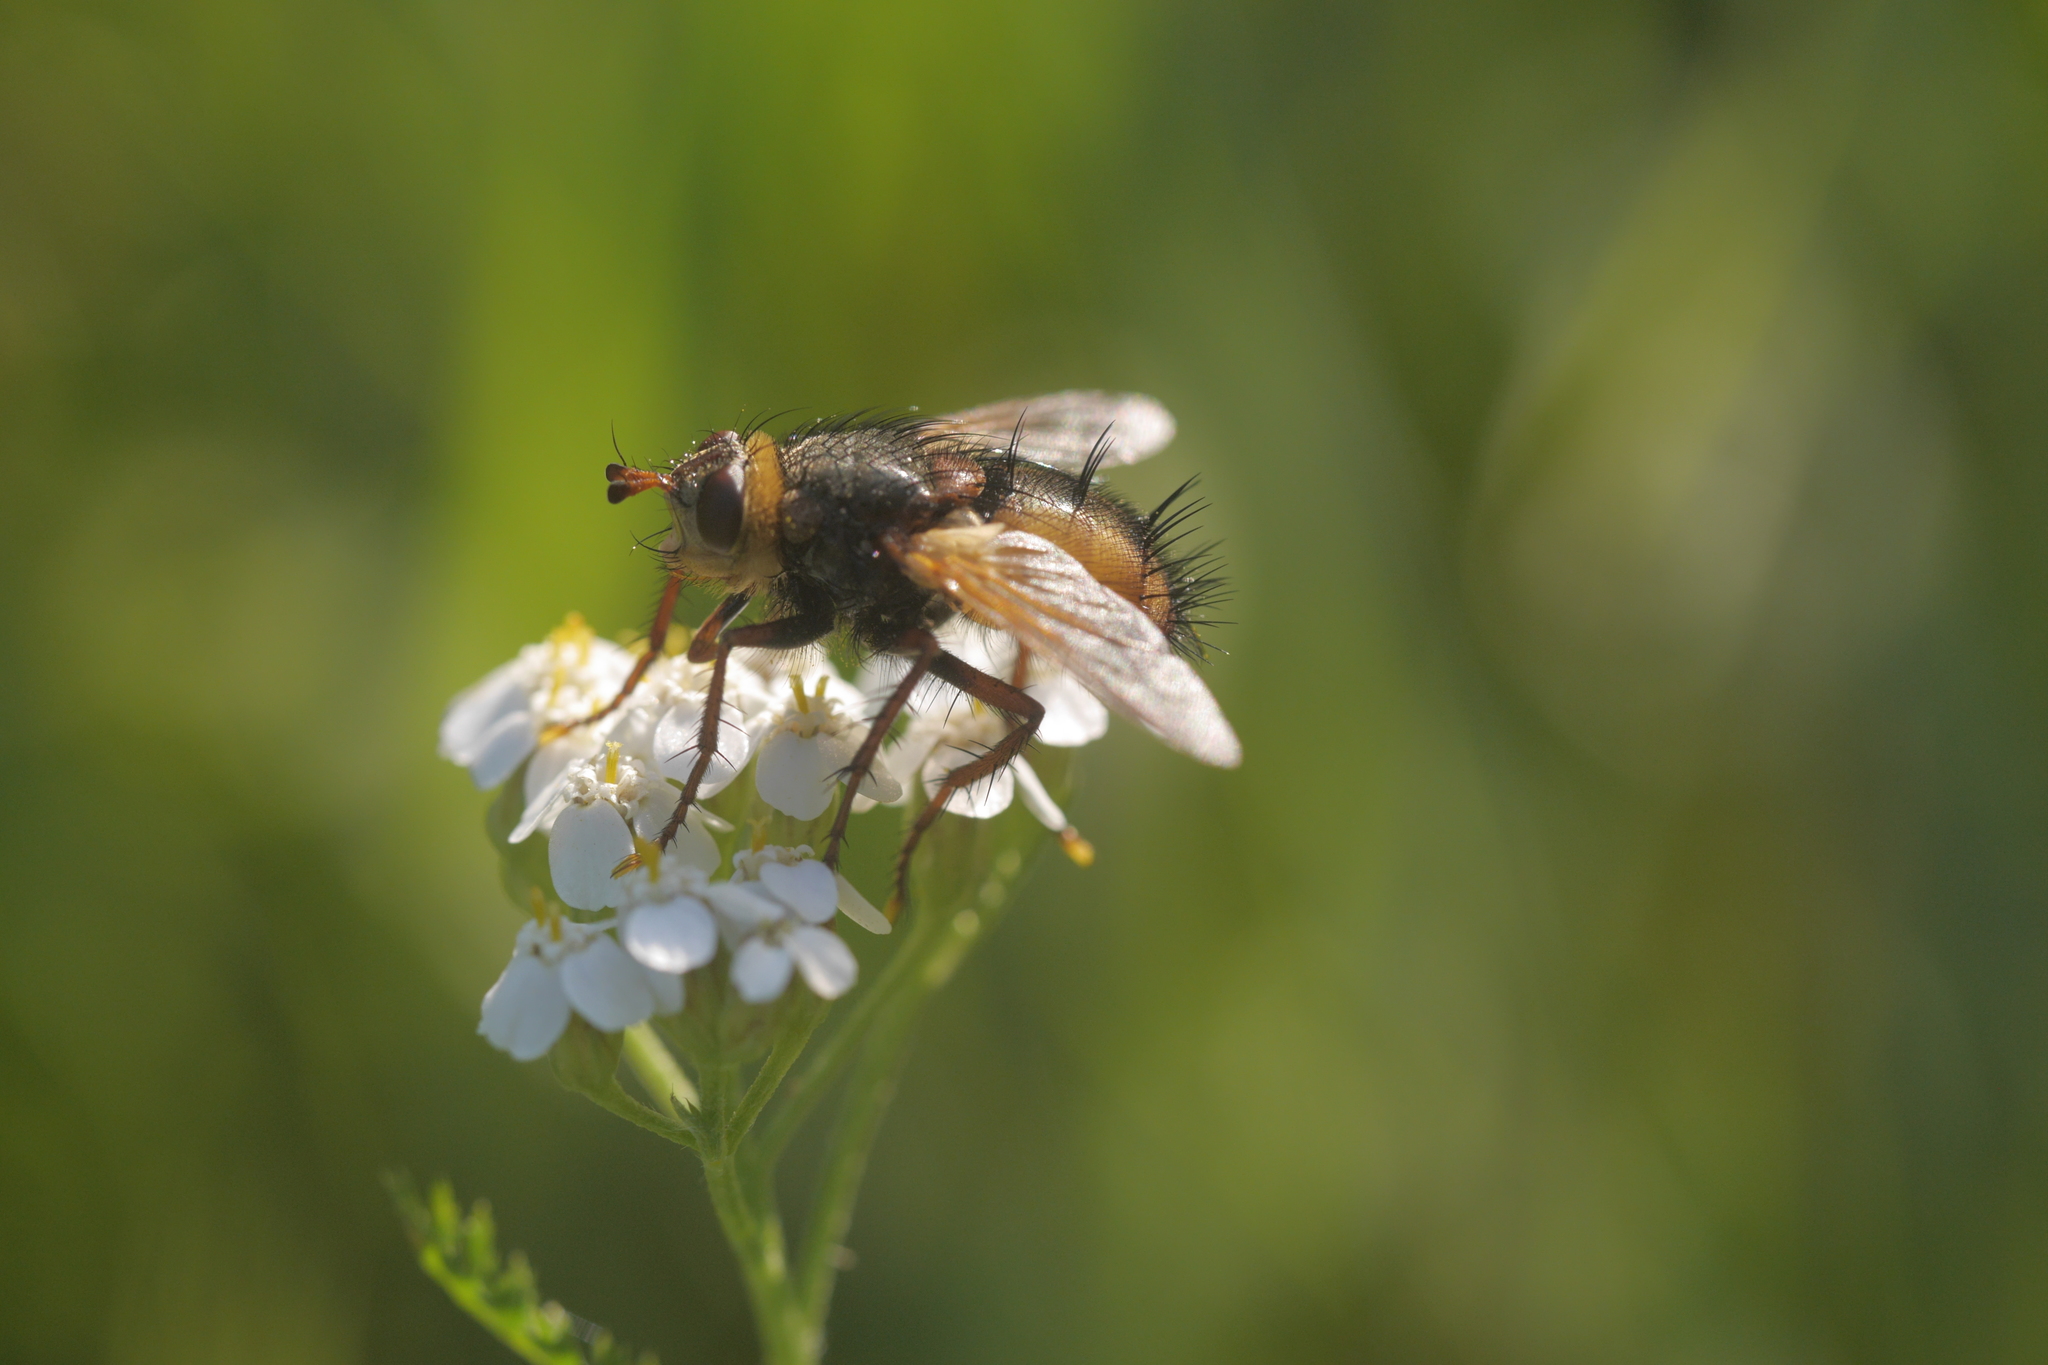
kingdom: Animalia
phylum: Arthropoda
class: Insecta
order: Diptera
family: Tachinidae
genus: Tachina
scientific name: Tachina fera
